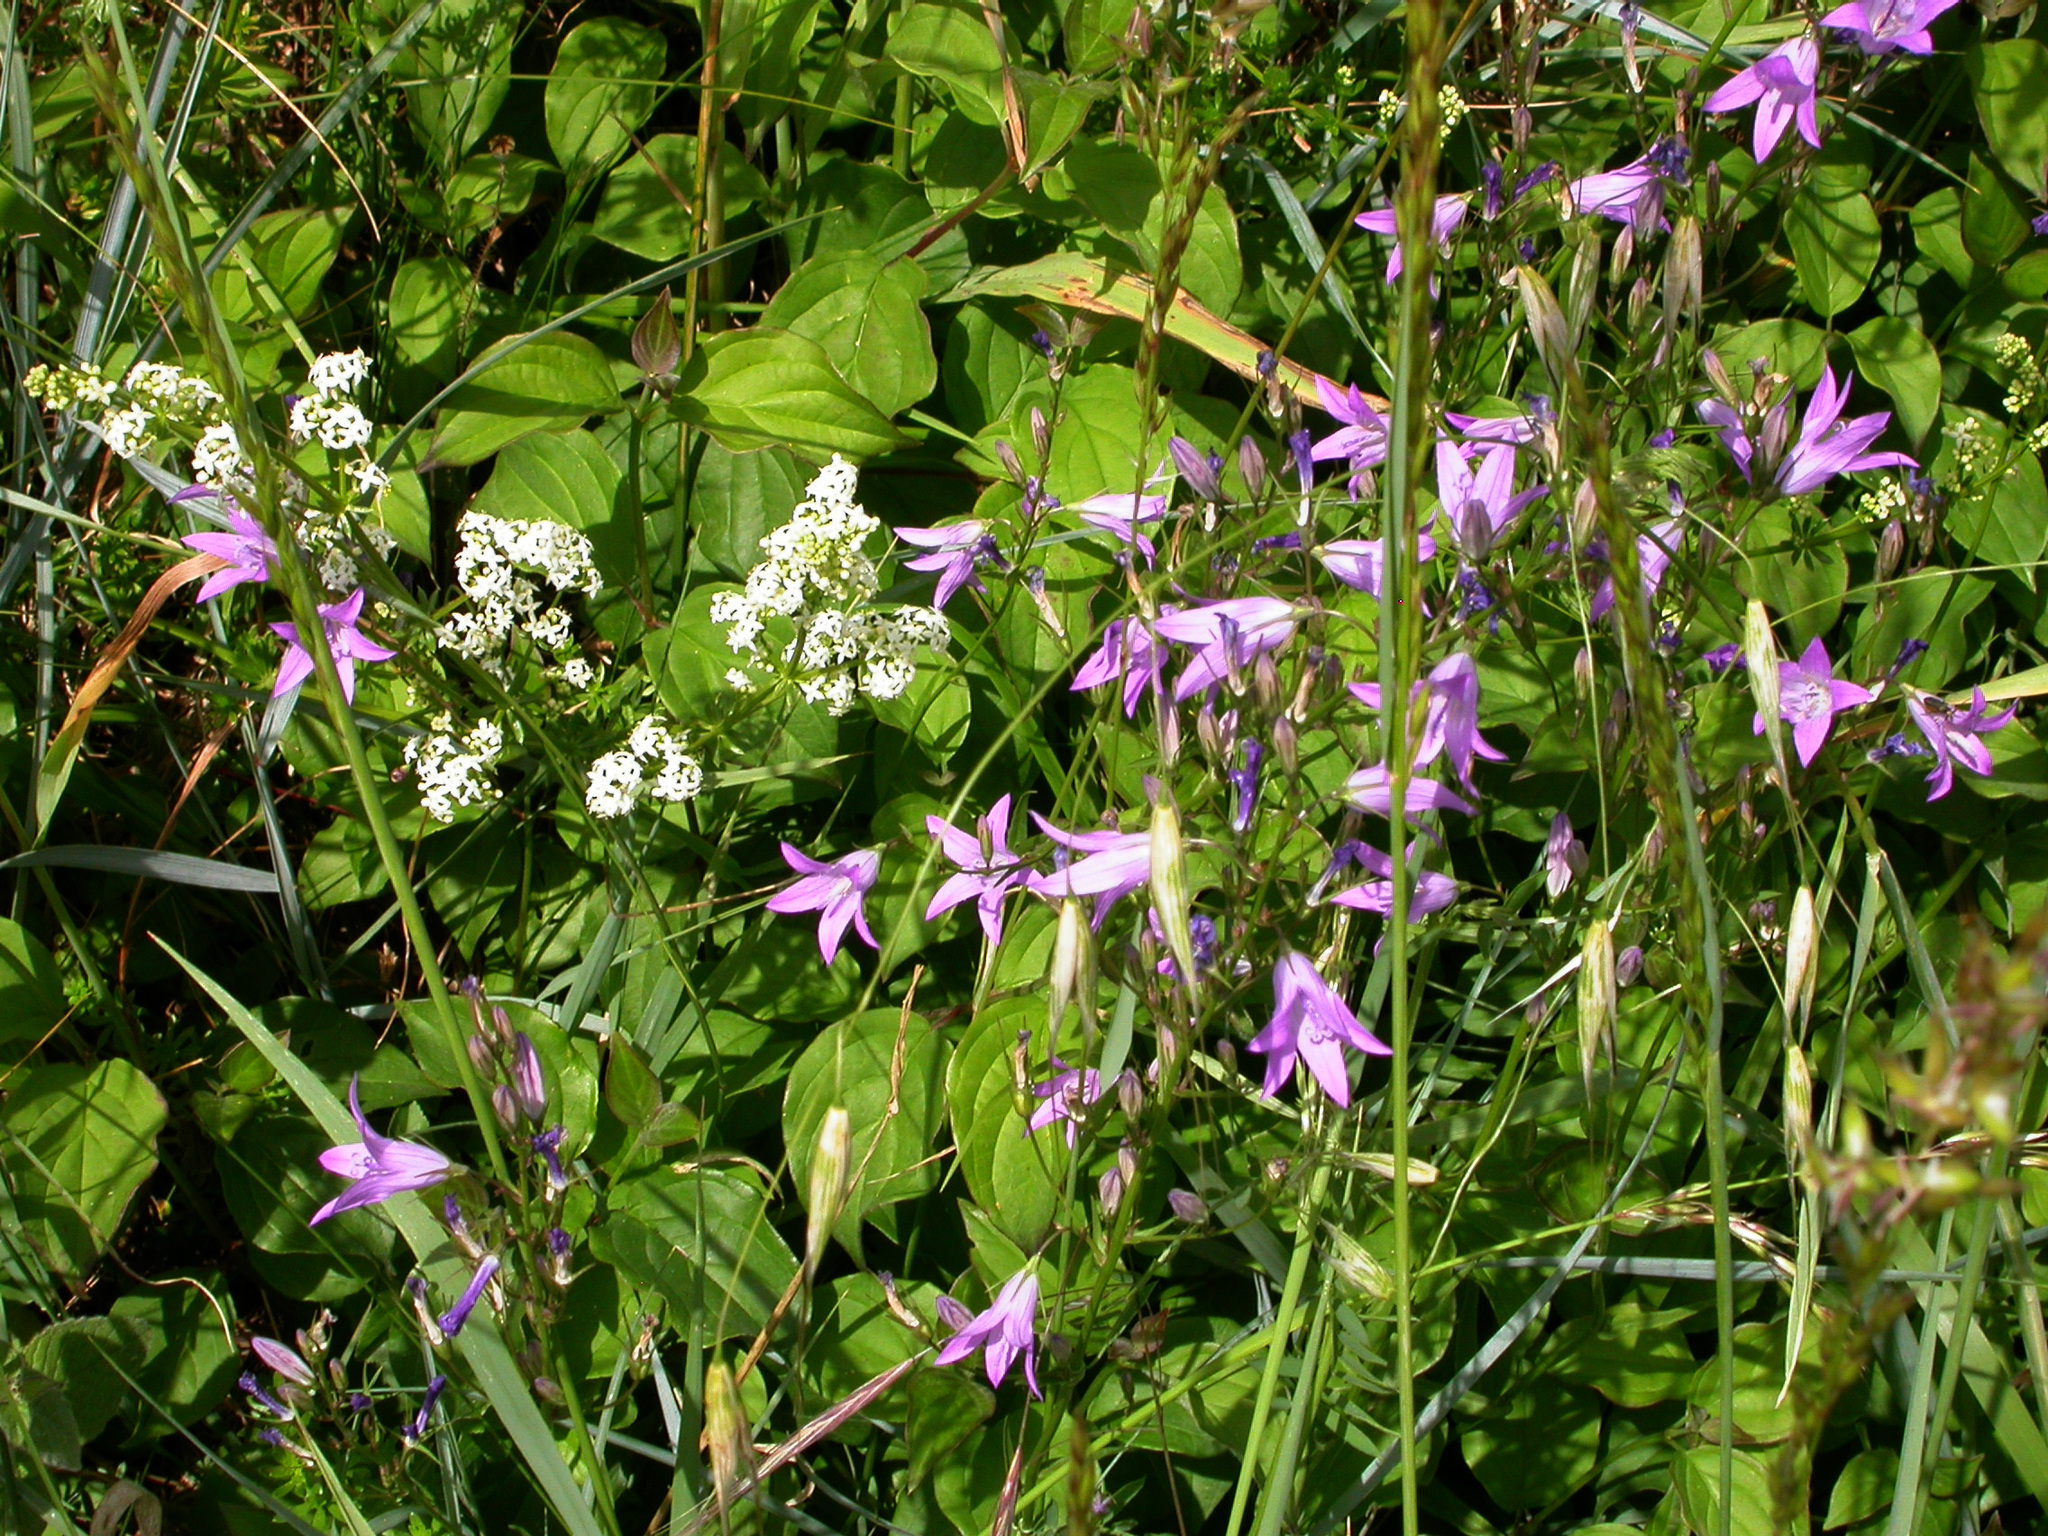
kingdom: Plantae
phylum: Tracheophyta
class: Magnoliopsida
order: Asterales
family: Campanulaceae
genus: Campanula
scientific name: Campanula rapunculus
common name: Rampion bellflower
